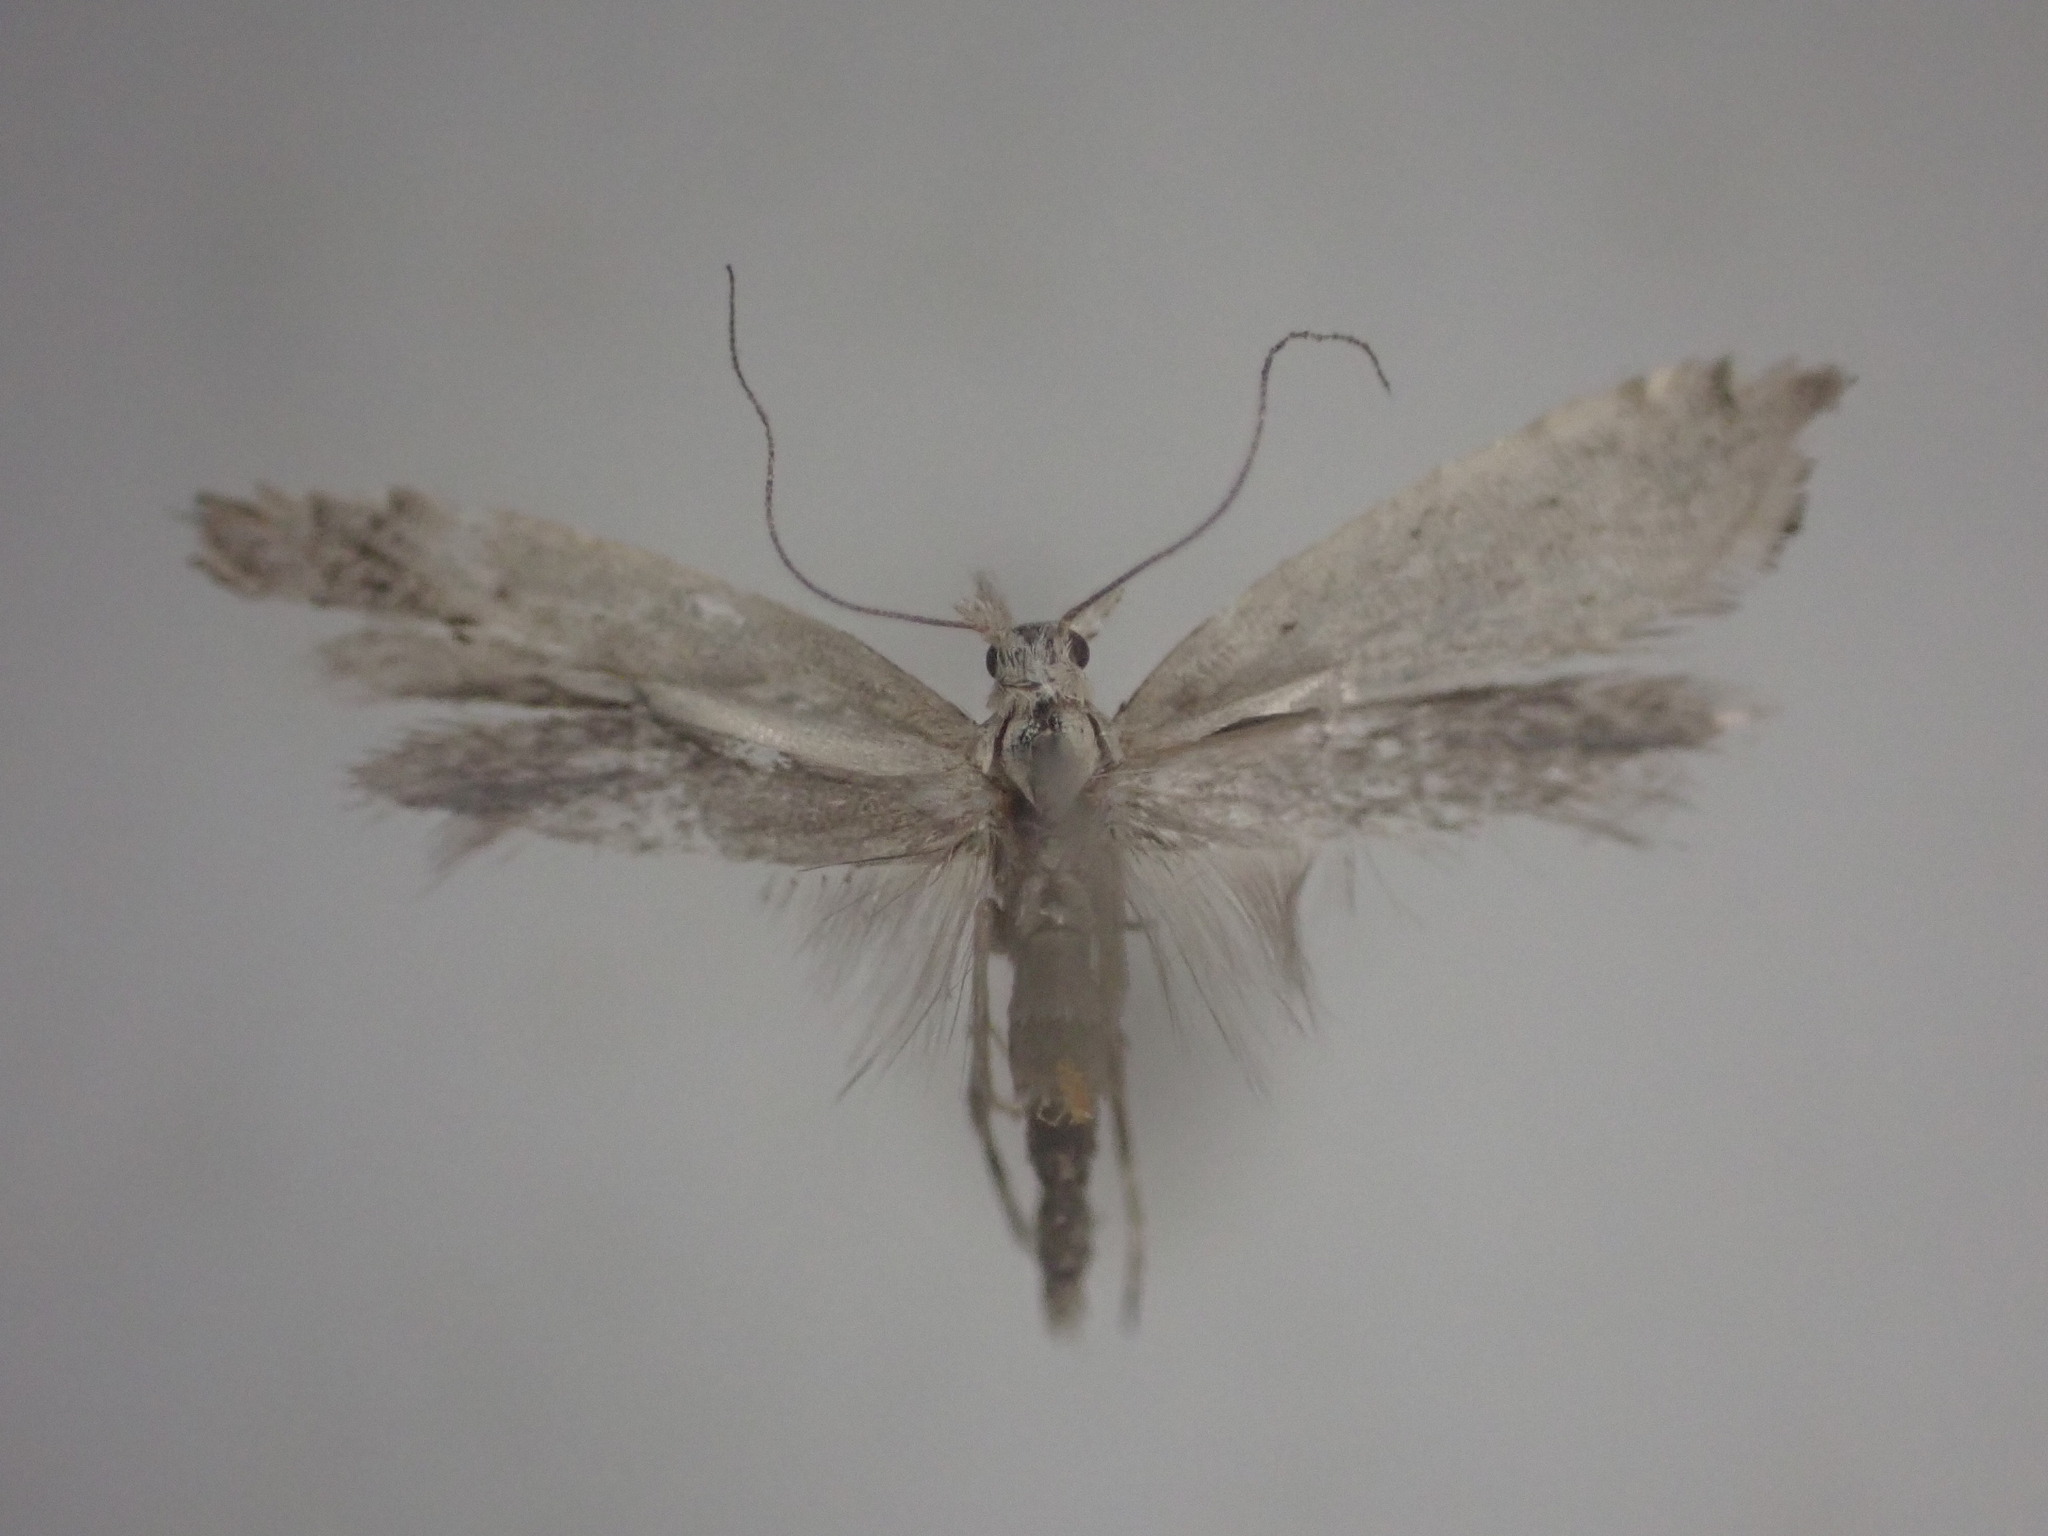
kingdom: Animalia
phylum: Arthropoda
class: Insecta
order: Lepidoptera
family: Glyphipterigidae
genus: Glyphipterix
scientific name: Glyphipterix achlyoessa
